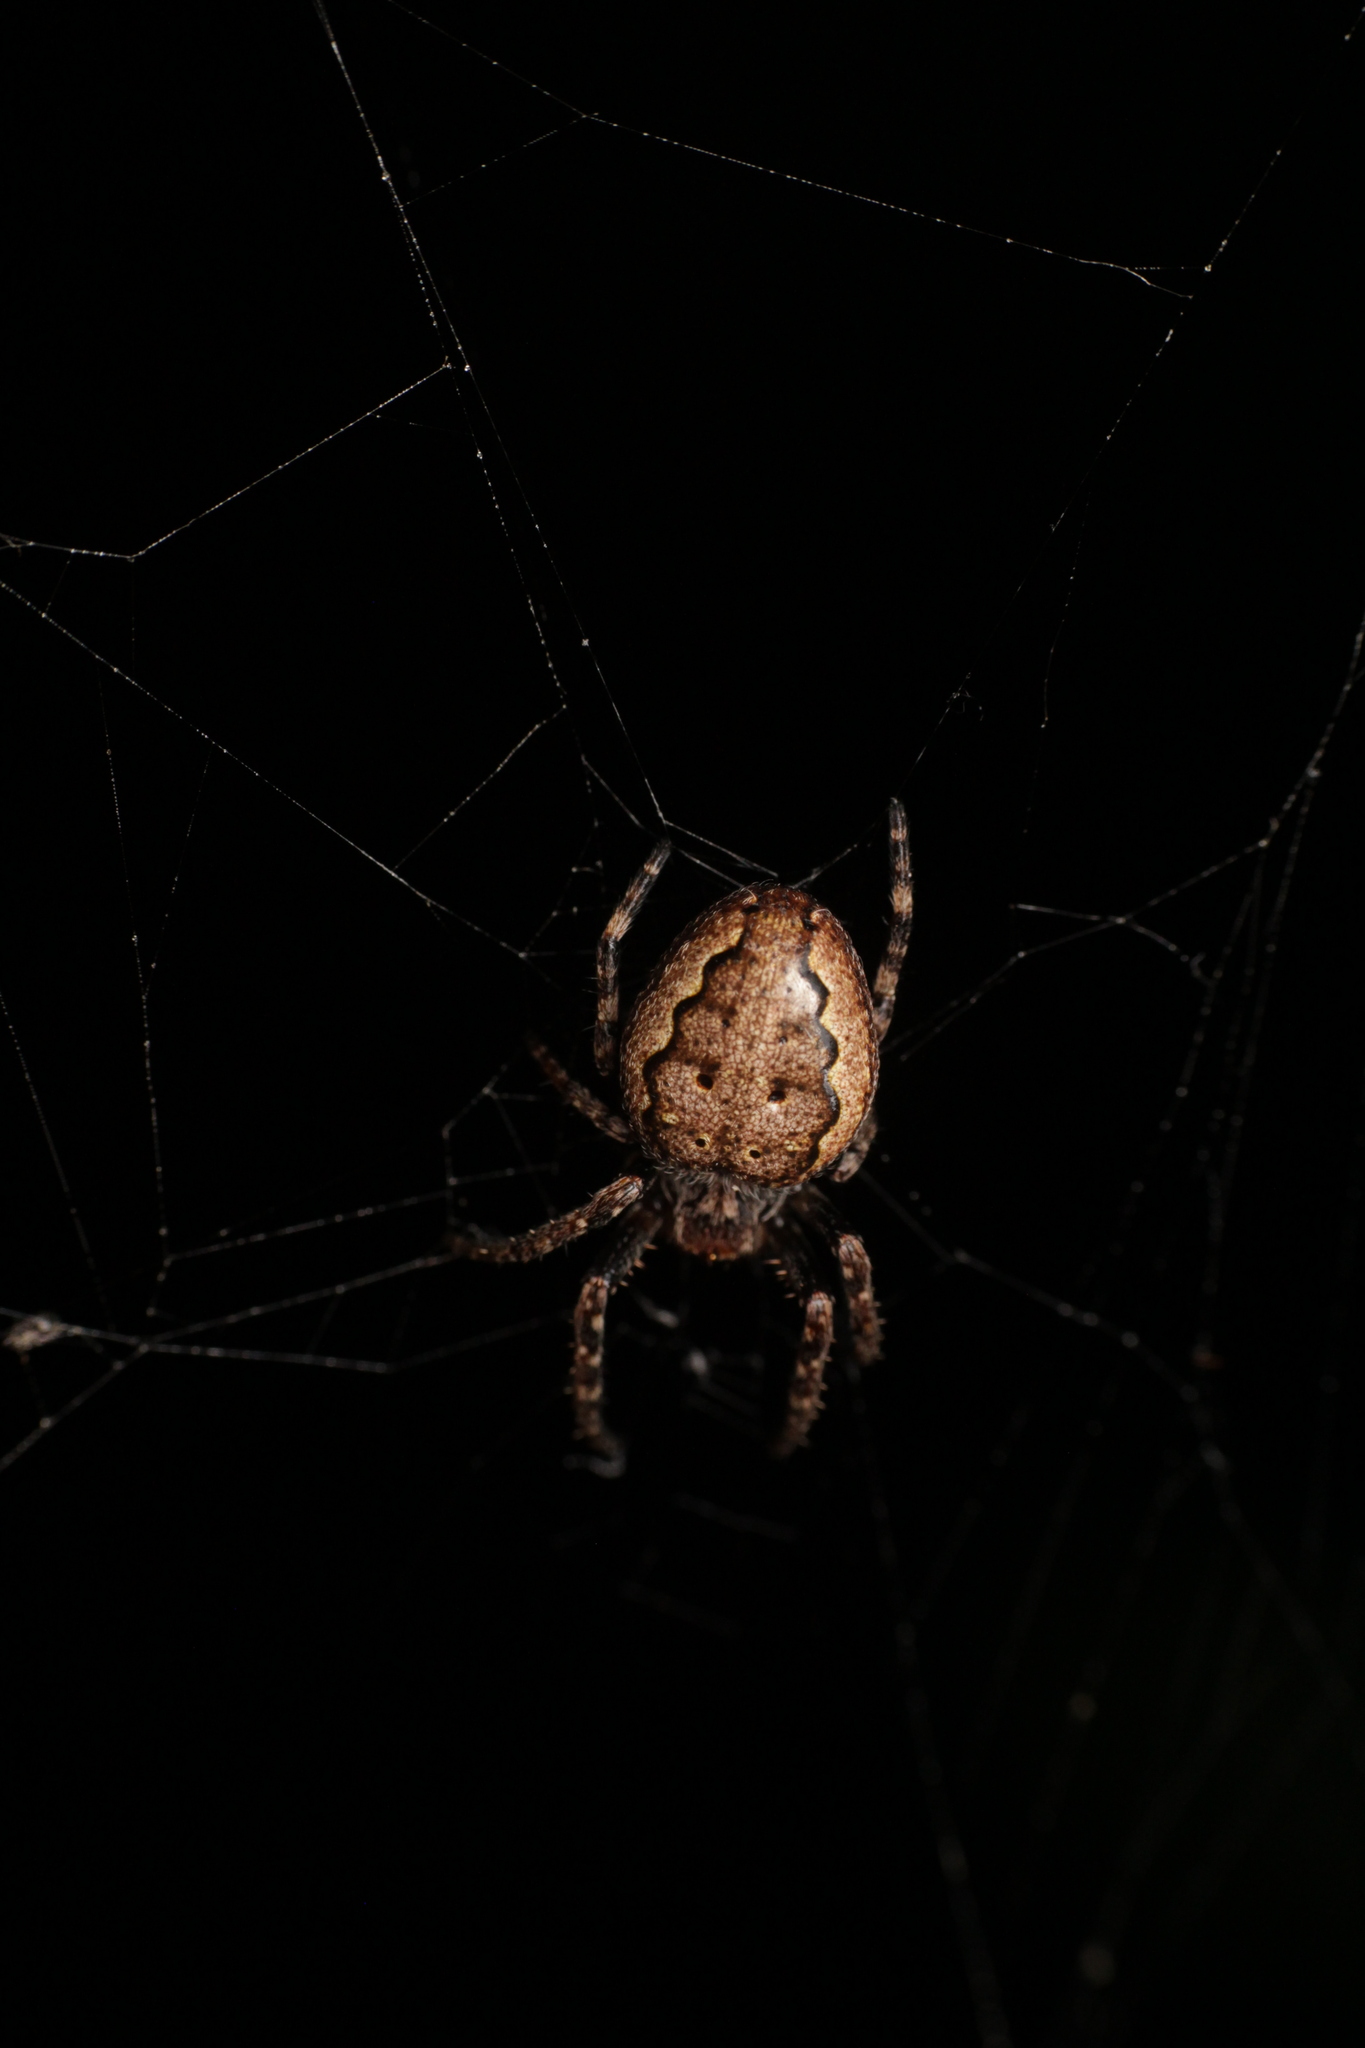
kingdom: Animalia
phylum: Arthropoda
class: Arachnida
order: Araneae
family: Araneidae
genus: Nuctenea
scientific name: Nuctenea umbratica
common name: Toad spider
